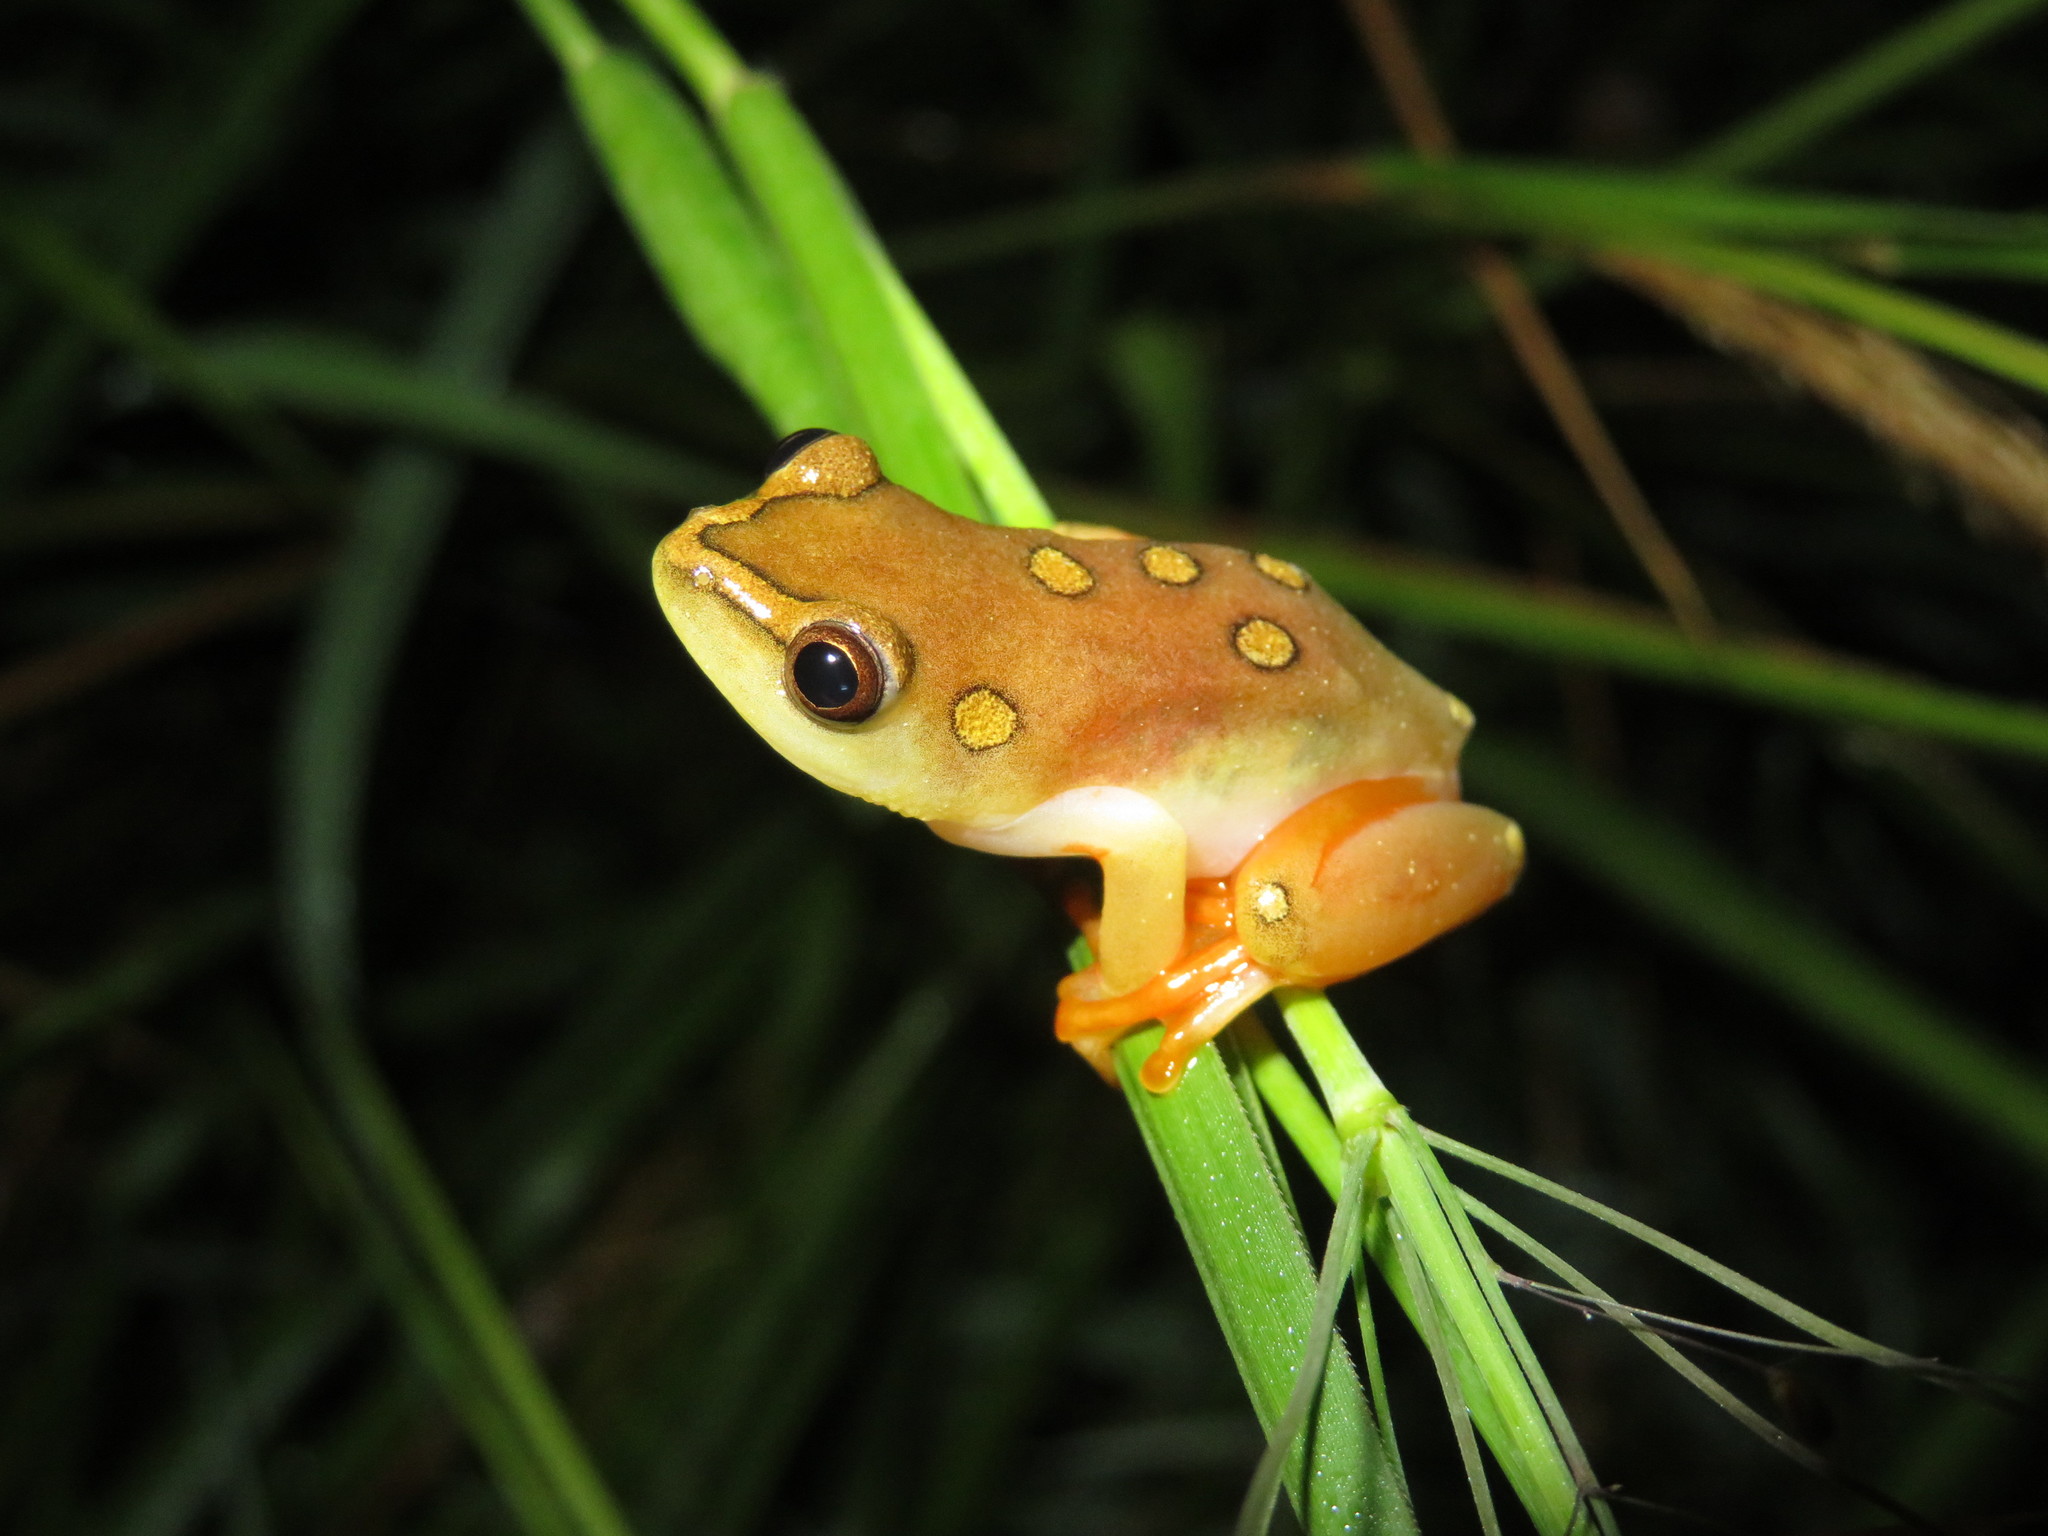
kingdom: Animalia
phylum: Chordata
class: Amphibia
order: Anura
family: Hyperoliidae
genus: Hyperolius
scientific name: Hyperolius argus
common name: Argus reed frog
